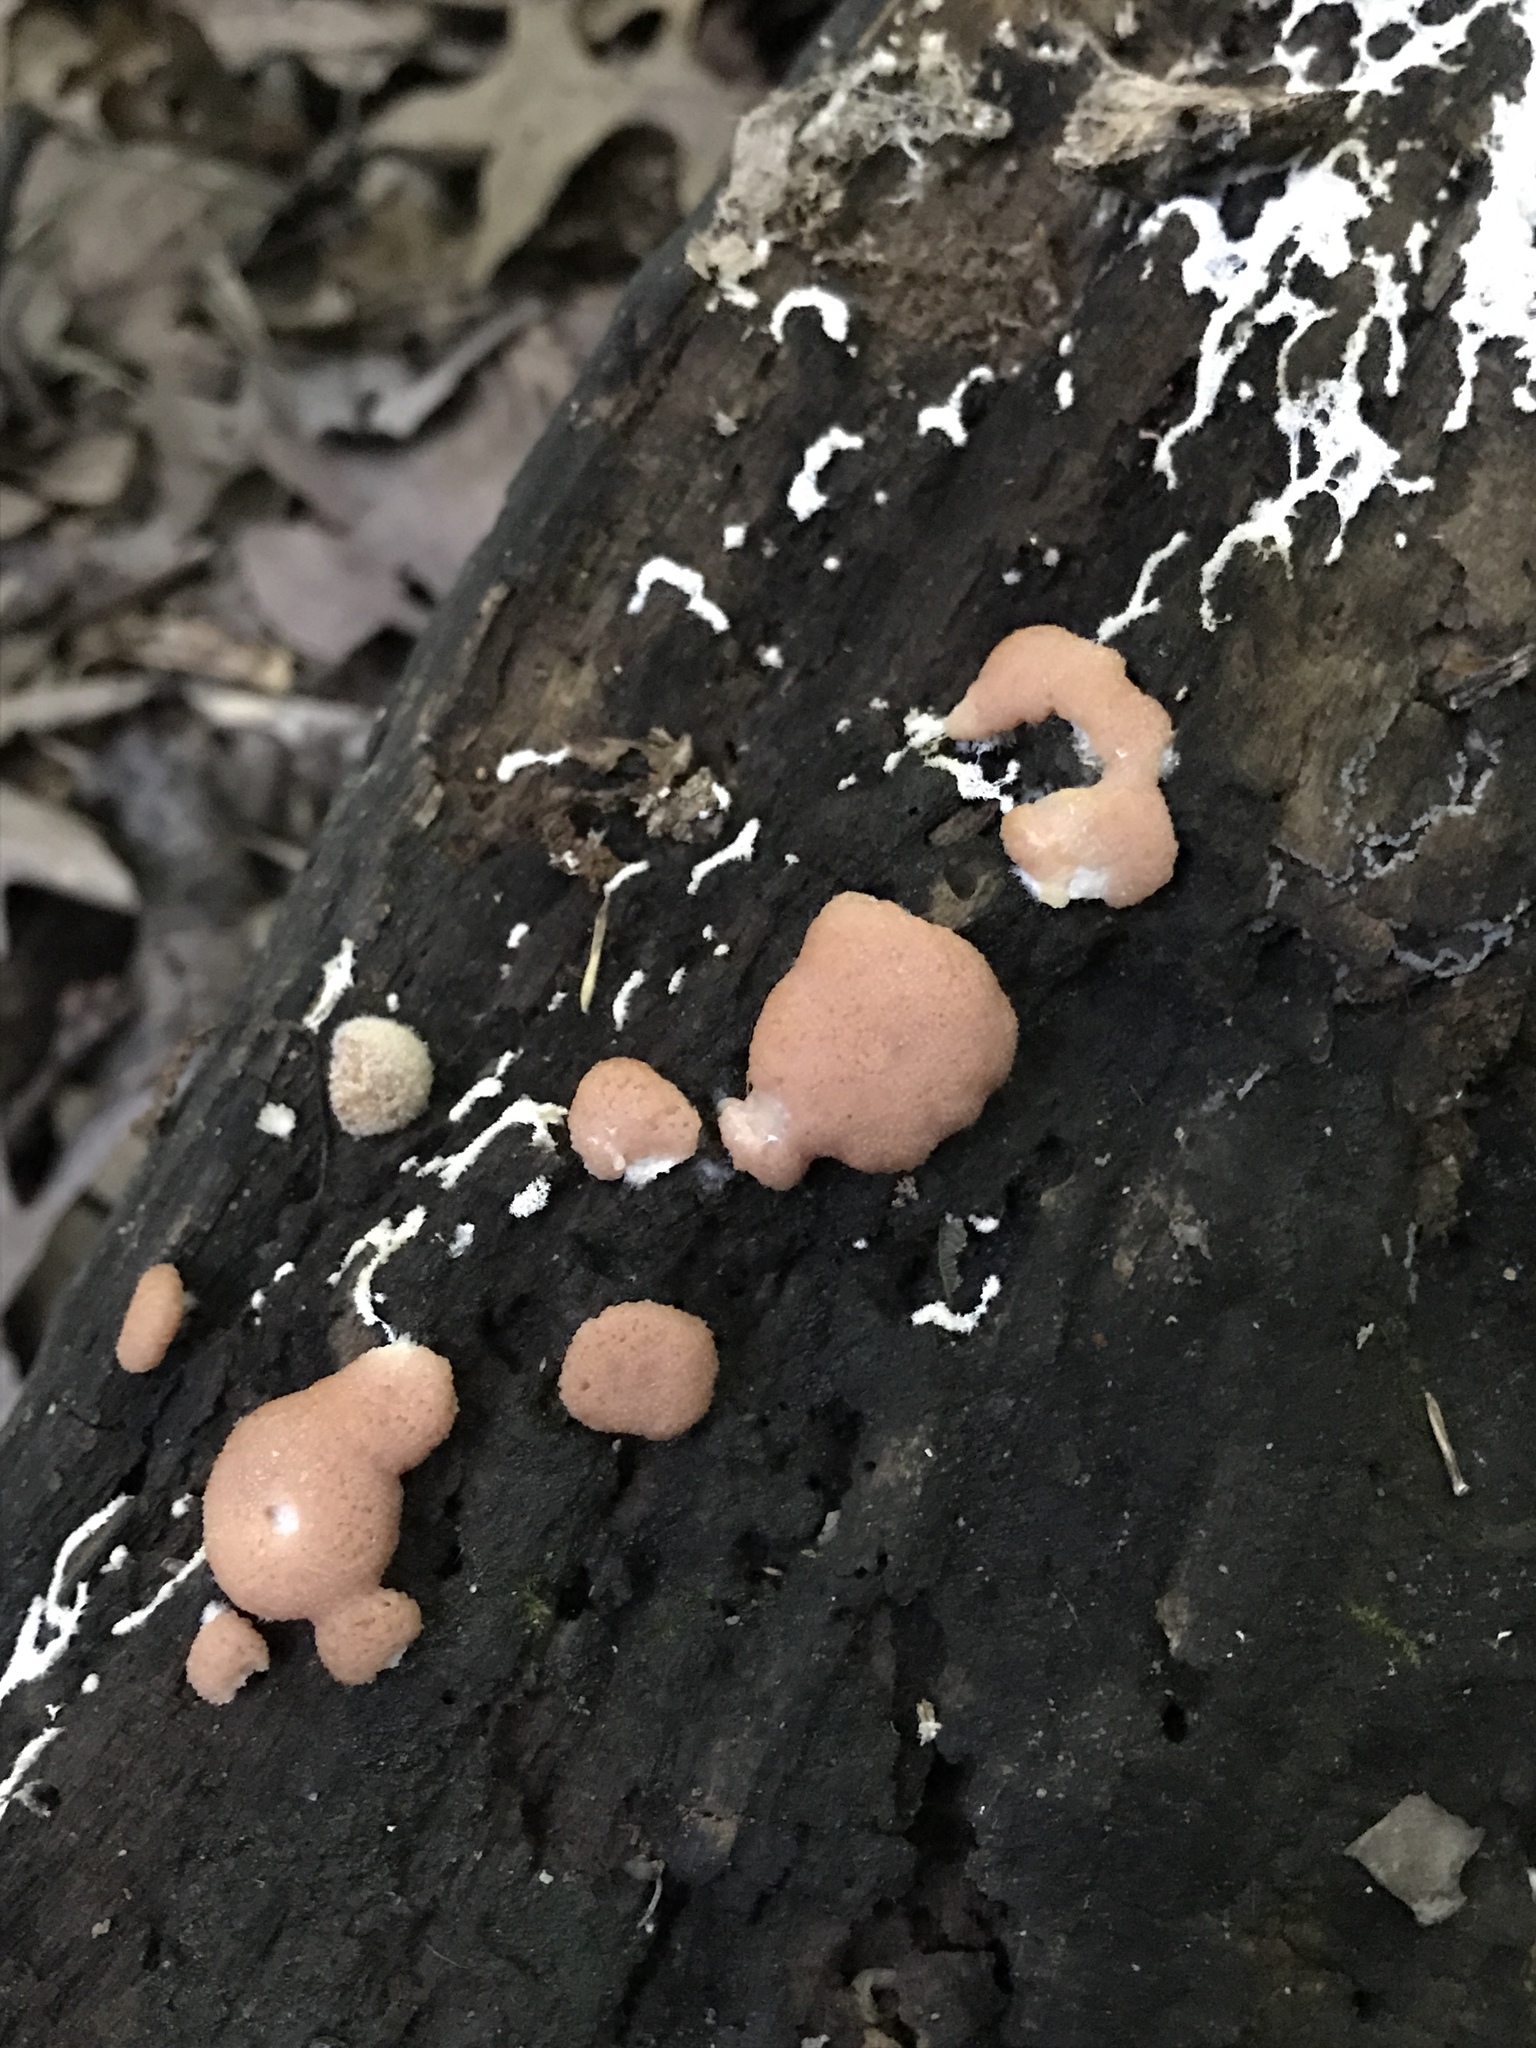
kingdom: Protozoa
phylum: Mycetozoa
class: Myxomycetes
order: Cribrariales
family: Tubiferaceae
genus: Tubifera
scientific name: Tubifera ferruginosa
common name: Red raspberry slime mold
